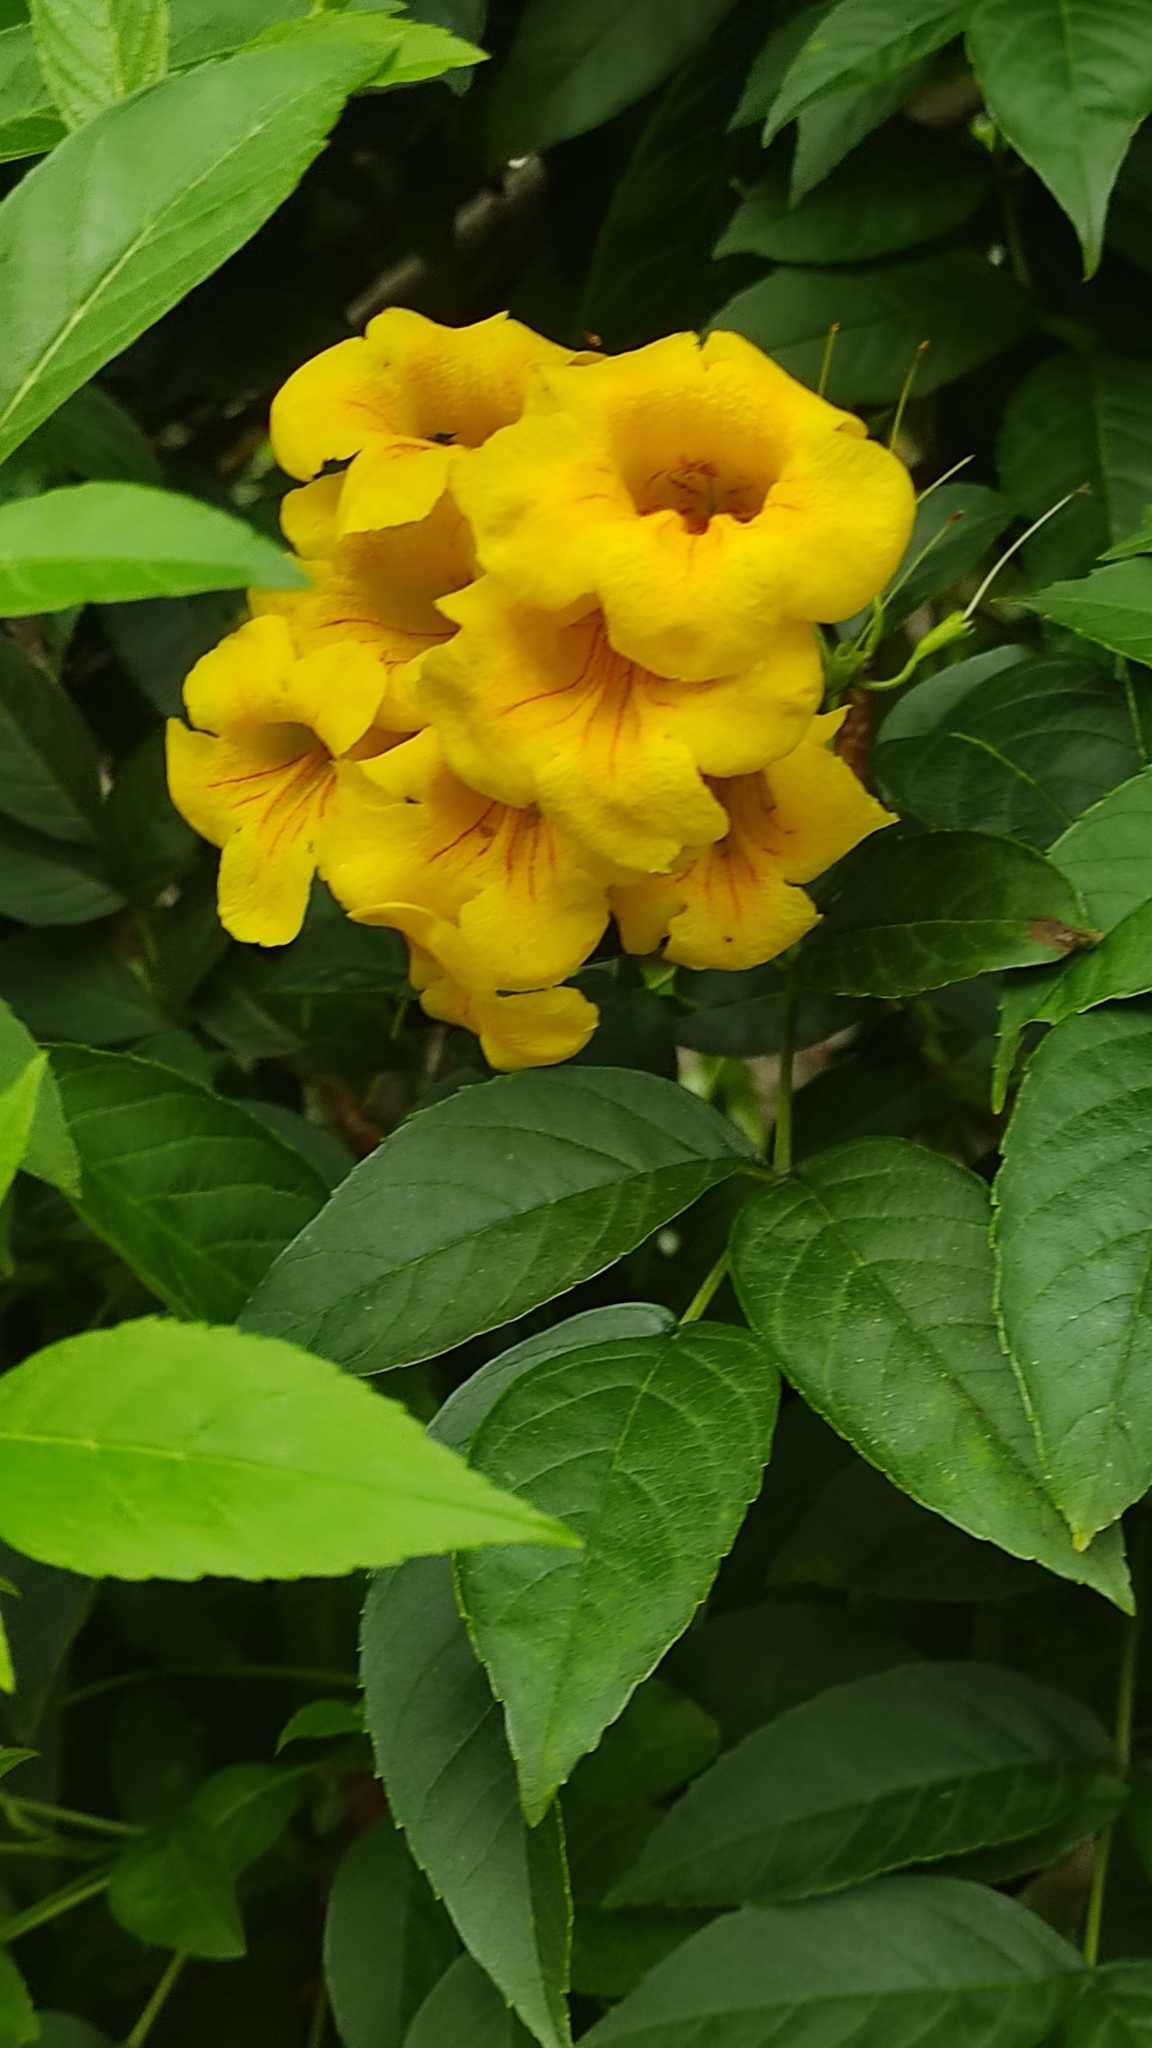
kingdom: Plantae
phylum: Tracheophyta
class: Magnoliopsida
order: Lamiales
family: Bignoniaceae
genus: Tecoma
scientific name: Tecoma stans
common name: Yellow trumpetbush
